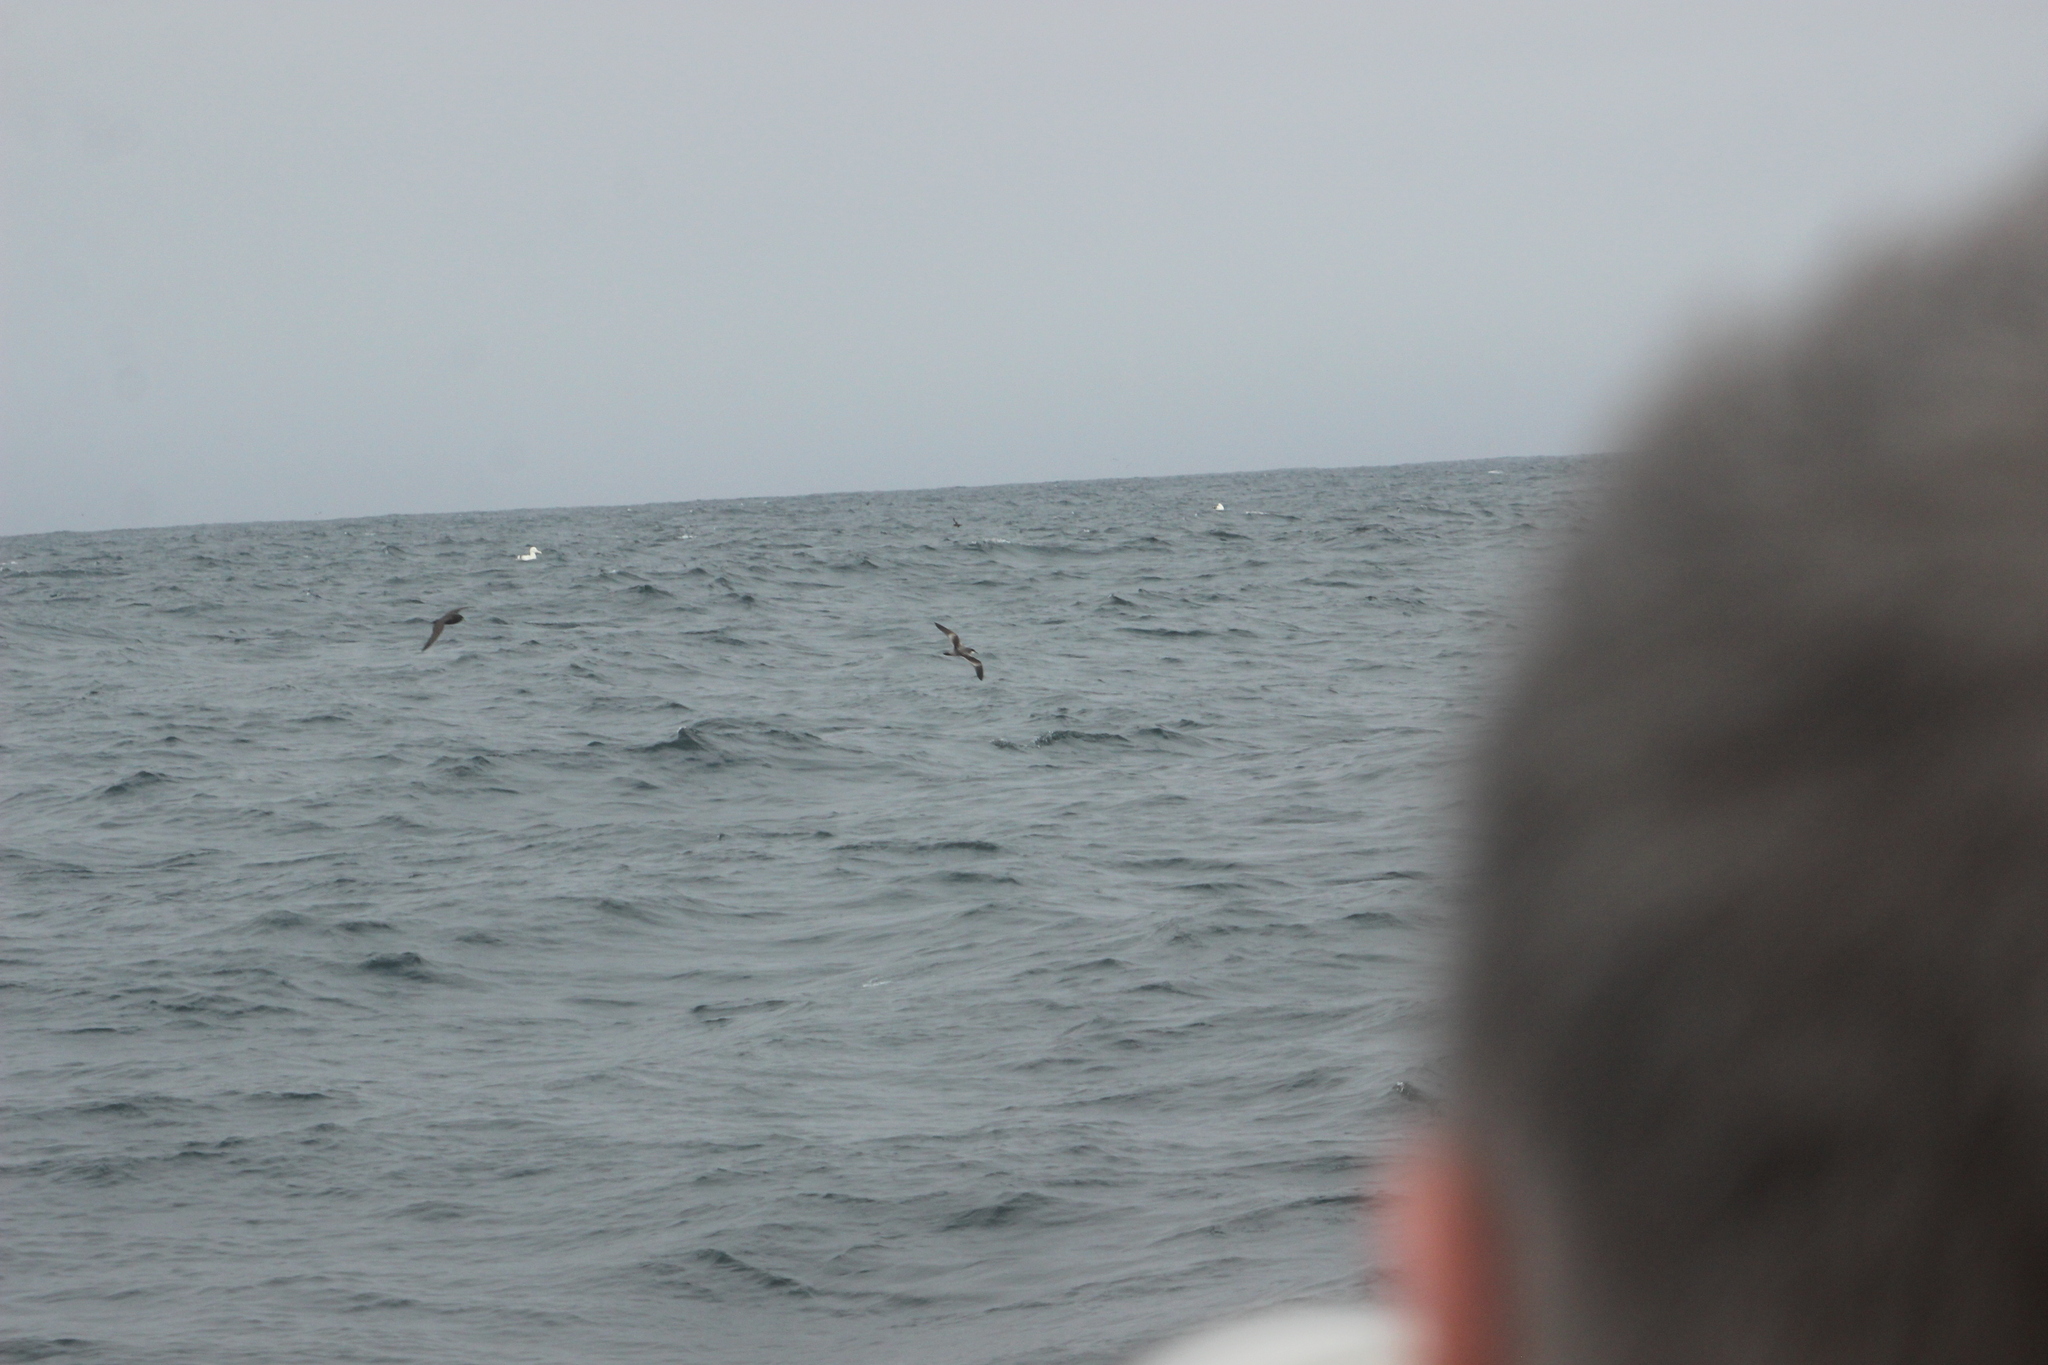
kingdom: Animalia
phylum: Chordata
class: Aves
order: Procellariiformes
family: Procellariidae
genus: Puffinus
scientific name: Puffinus bulleri
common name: Buller's shearwater
